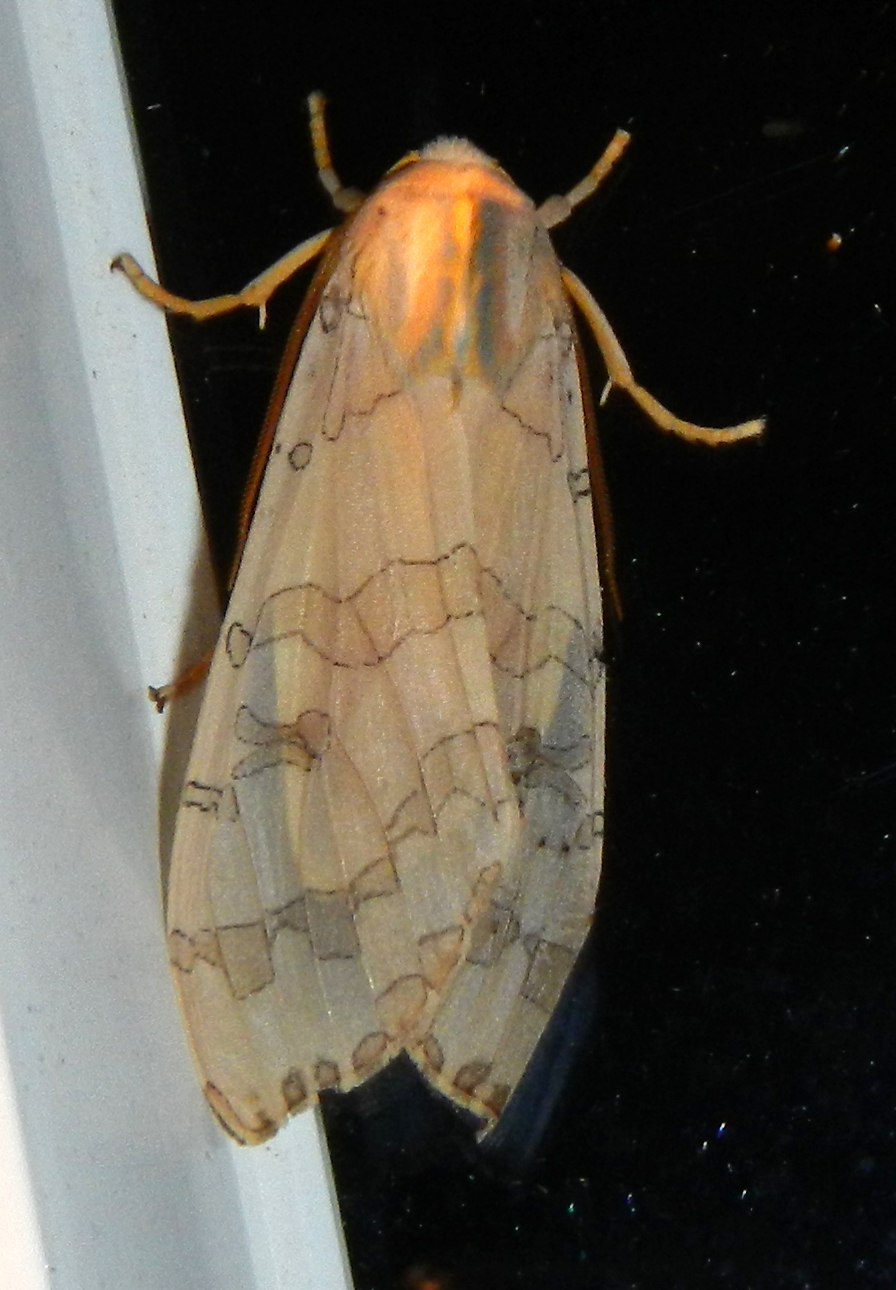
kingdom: Animalia
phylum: Arthropoda
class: Insecta
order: Lepidoptera
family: Erebidae
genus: Halysidota
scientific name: Halysidota tessellaris
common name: Banded tussock moth
